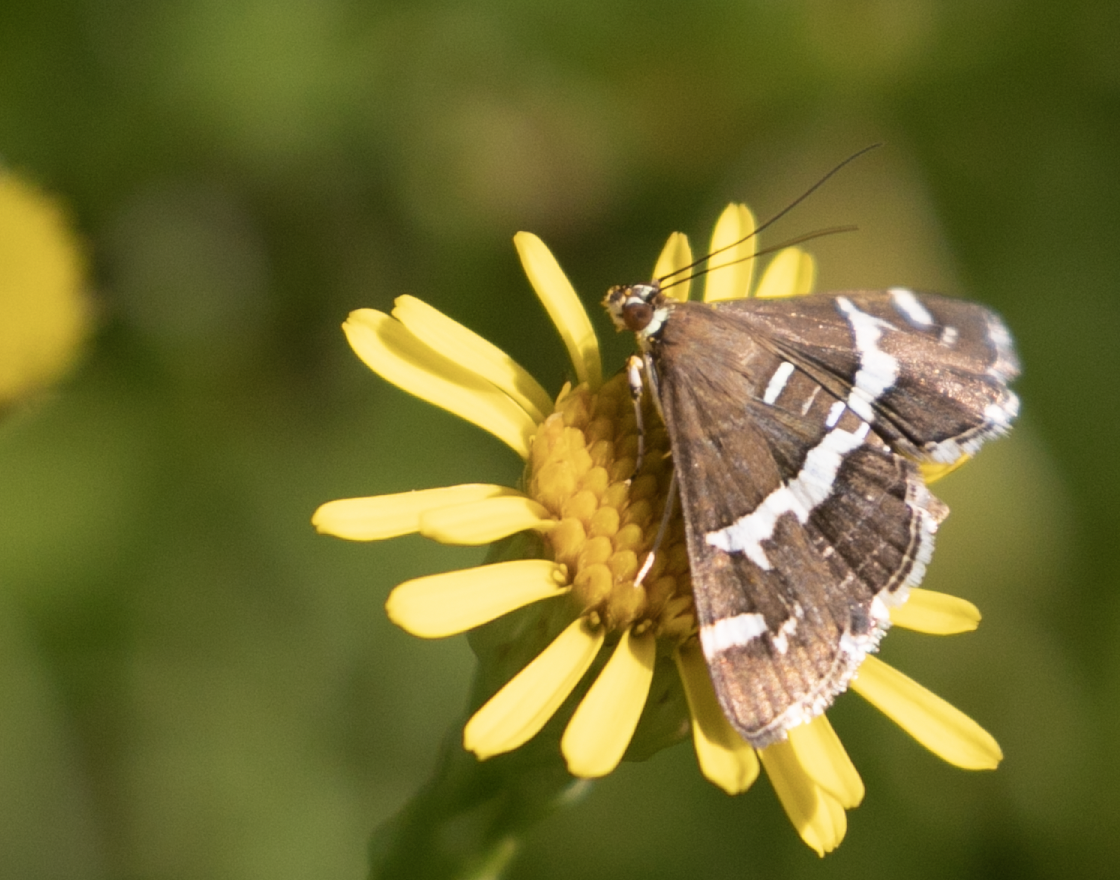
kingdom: Animalia
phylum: Arthropoda
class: Insecta
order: Lepidoptera
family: Crambidae
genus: Spoladea
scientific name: Spoladea recurvalis
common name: Beet webworm moth
